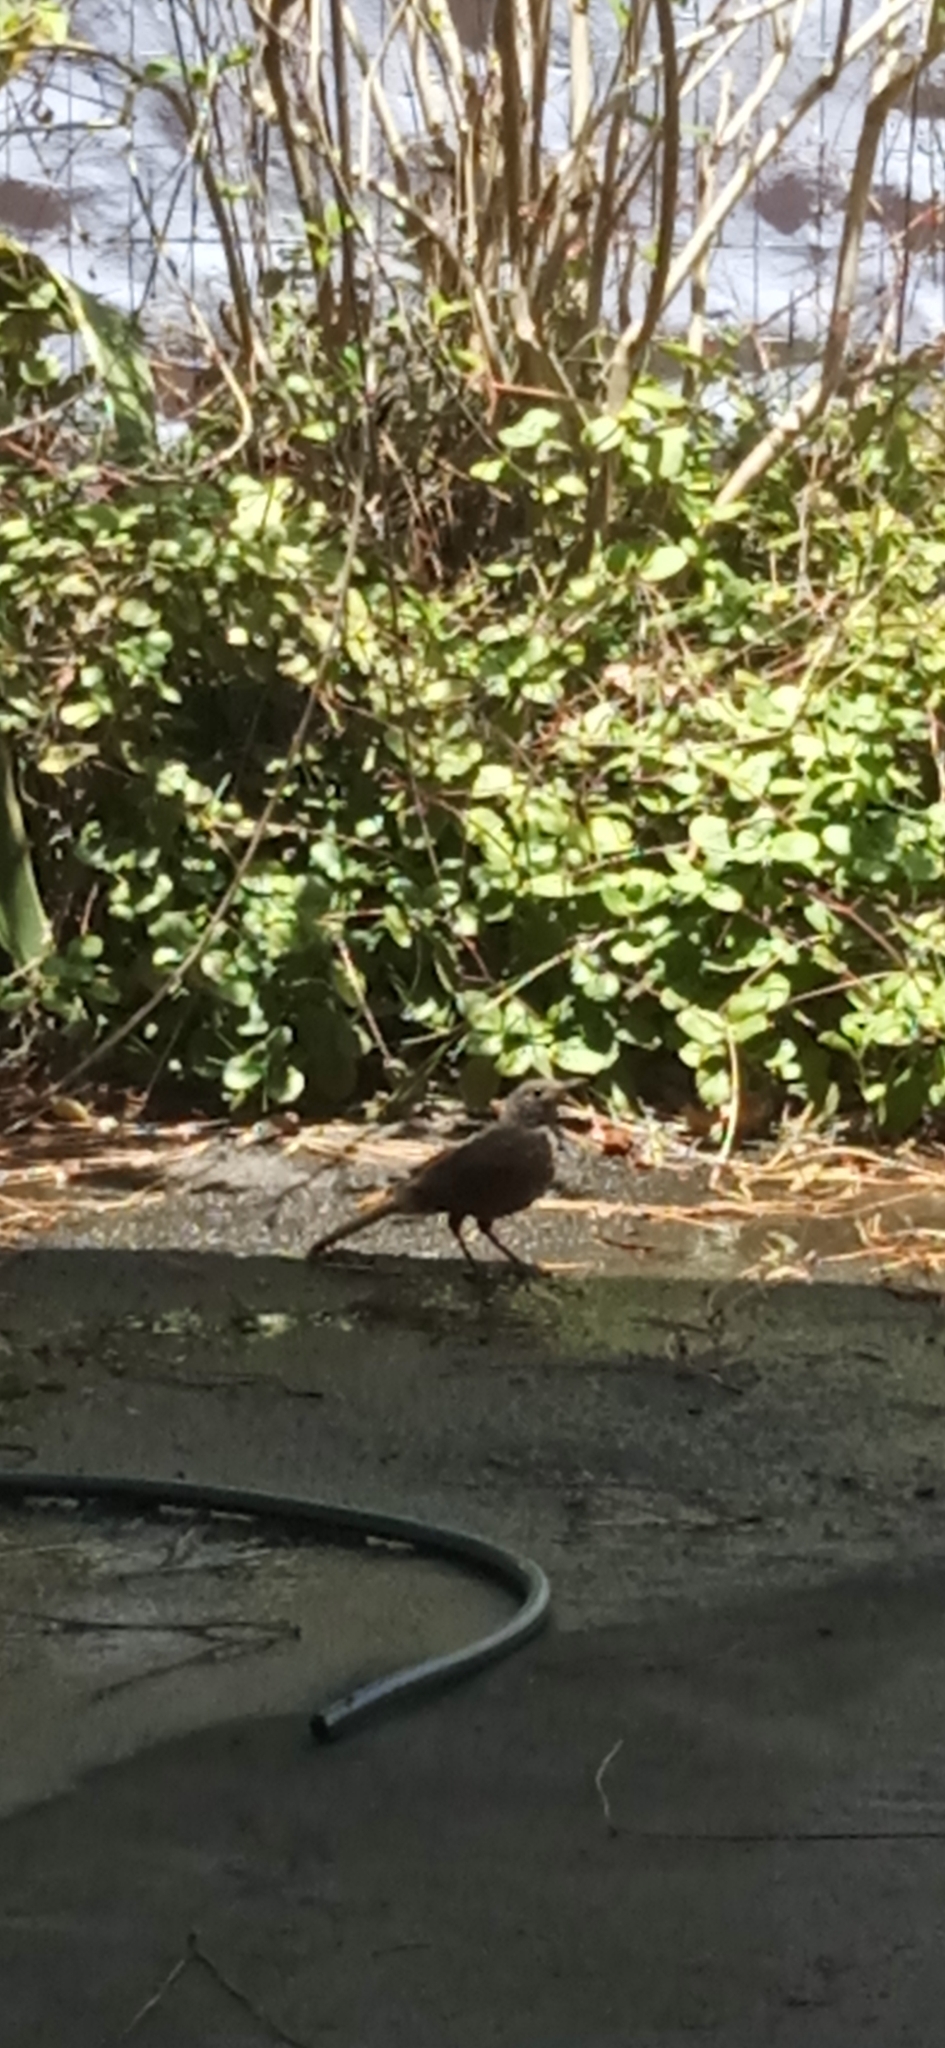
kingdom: Animalia
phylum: Chordata
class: Aves
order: Passeriformes
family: Turdidae
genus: Turdus
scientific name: Turdus rufiventris
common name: Rufous-bellied thrush
